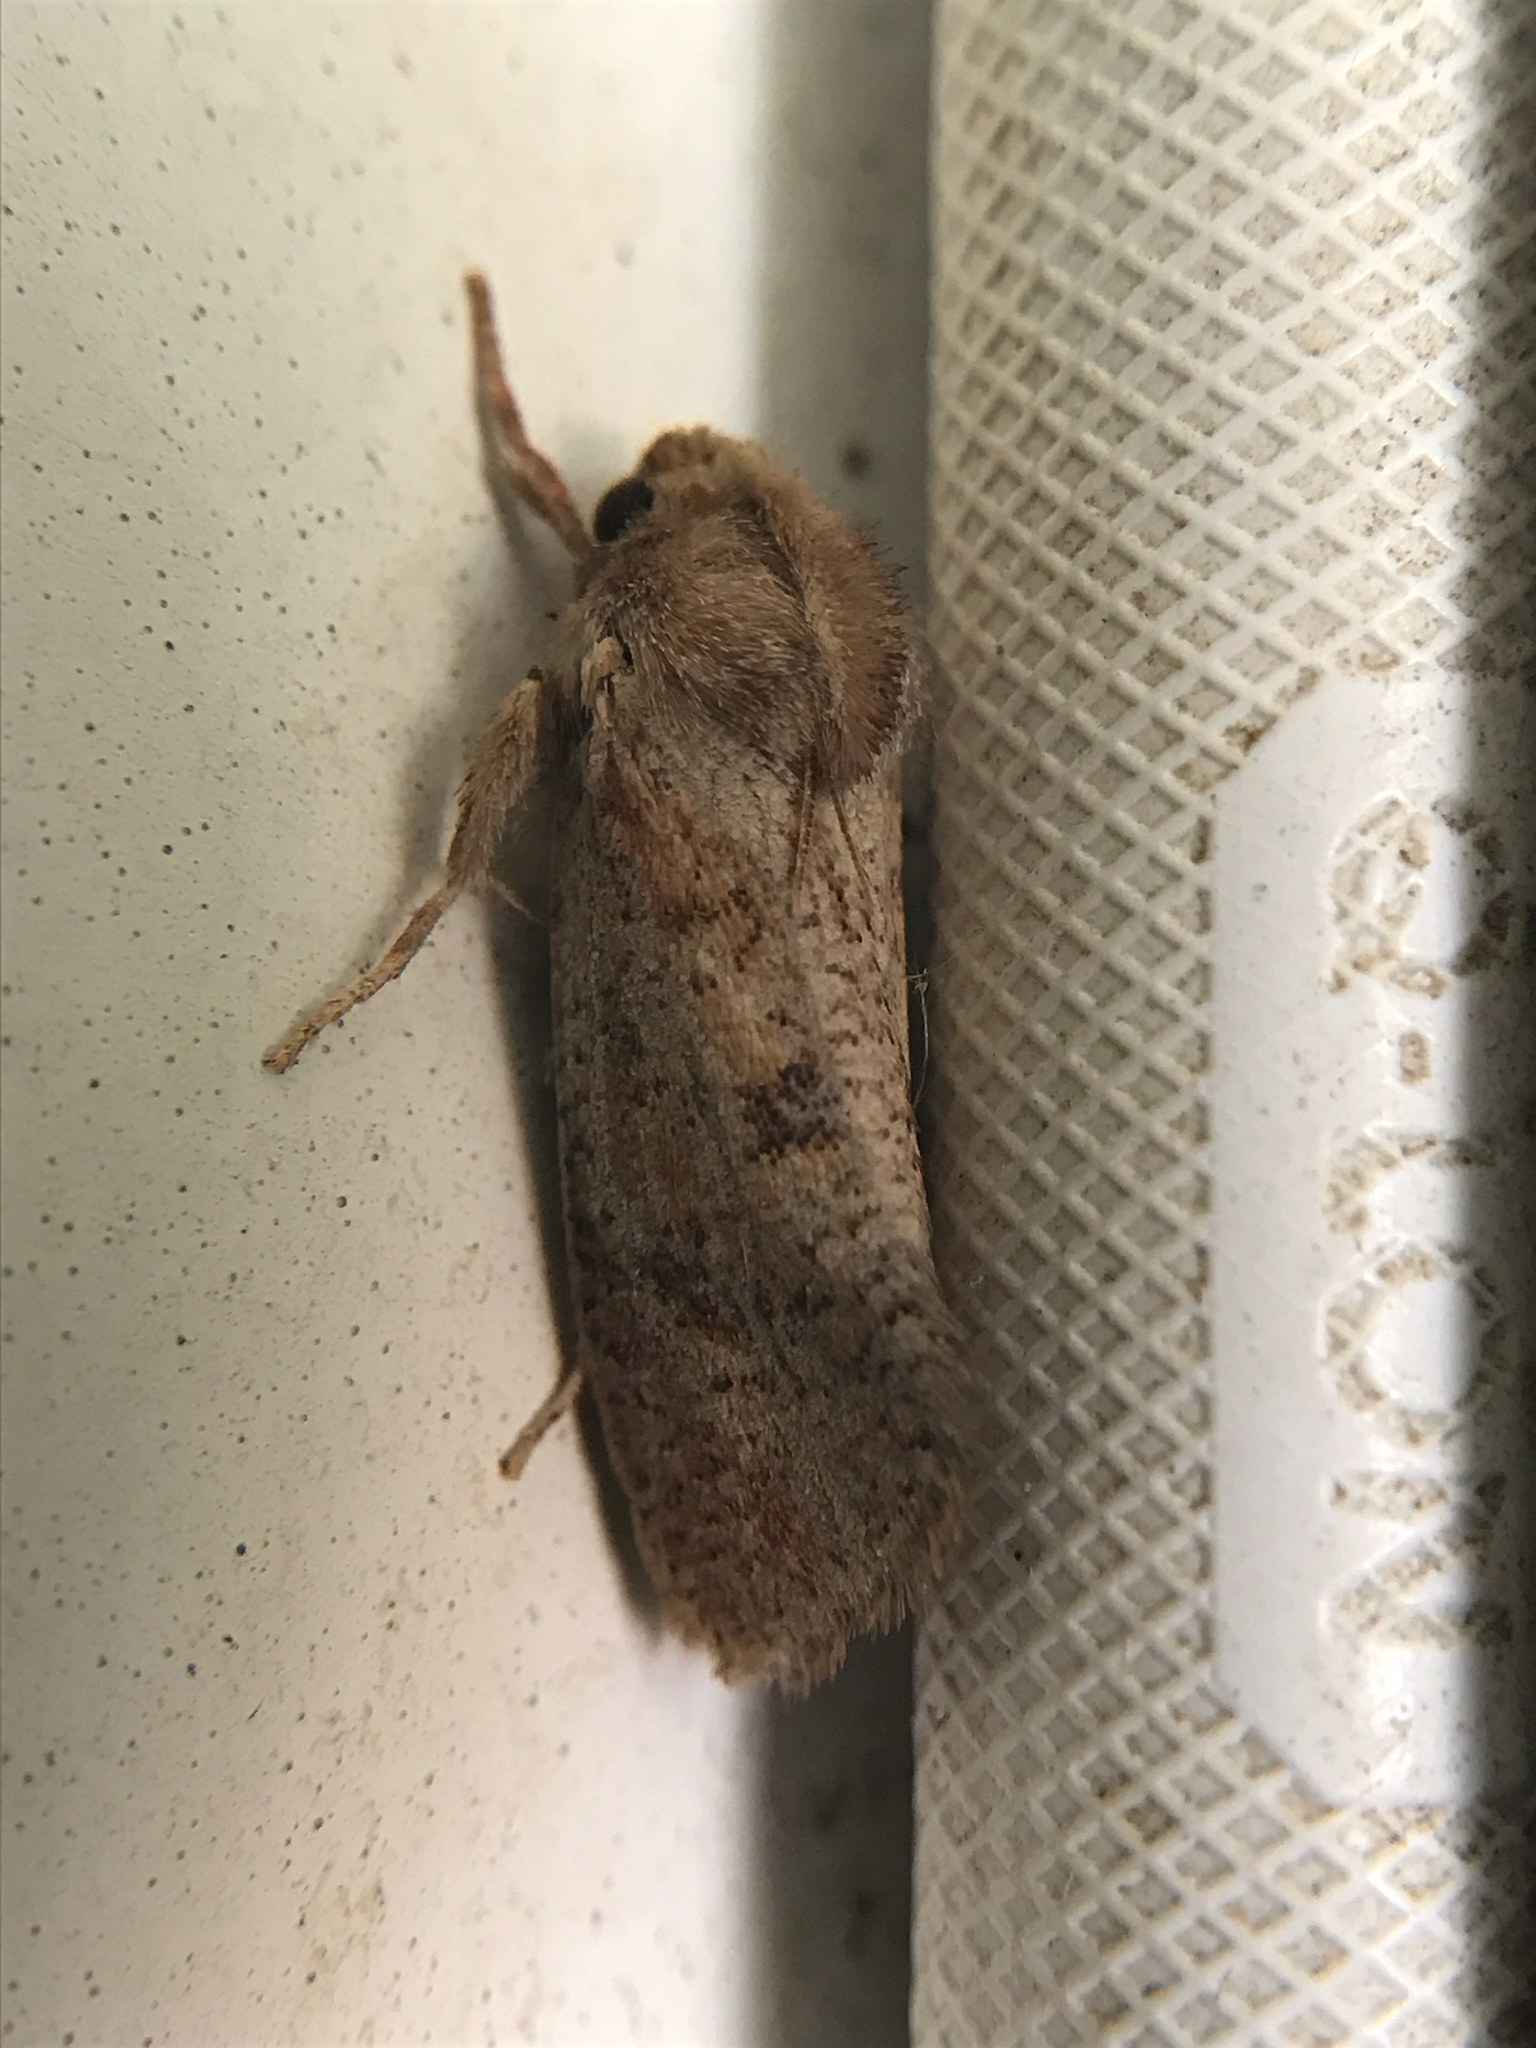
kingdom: Animalia
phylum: Arthropoda
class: Insecta
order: Lepidoptera
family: Tineidae
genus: Acrolophus
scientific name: Acrolophus plumifrontella
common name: Eastern grass tubeworm moth
